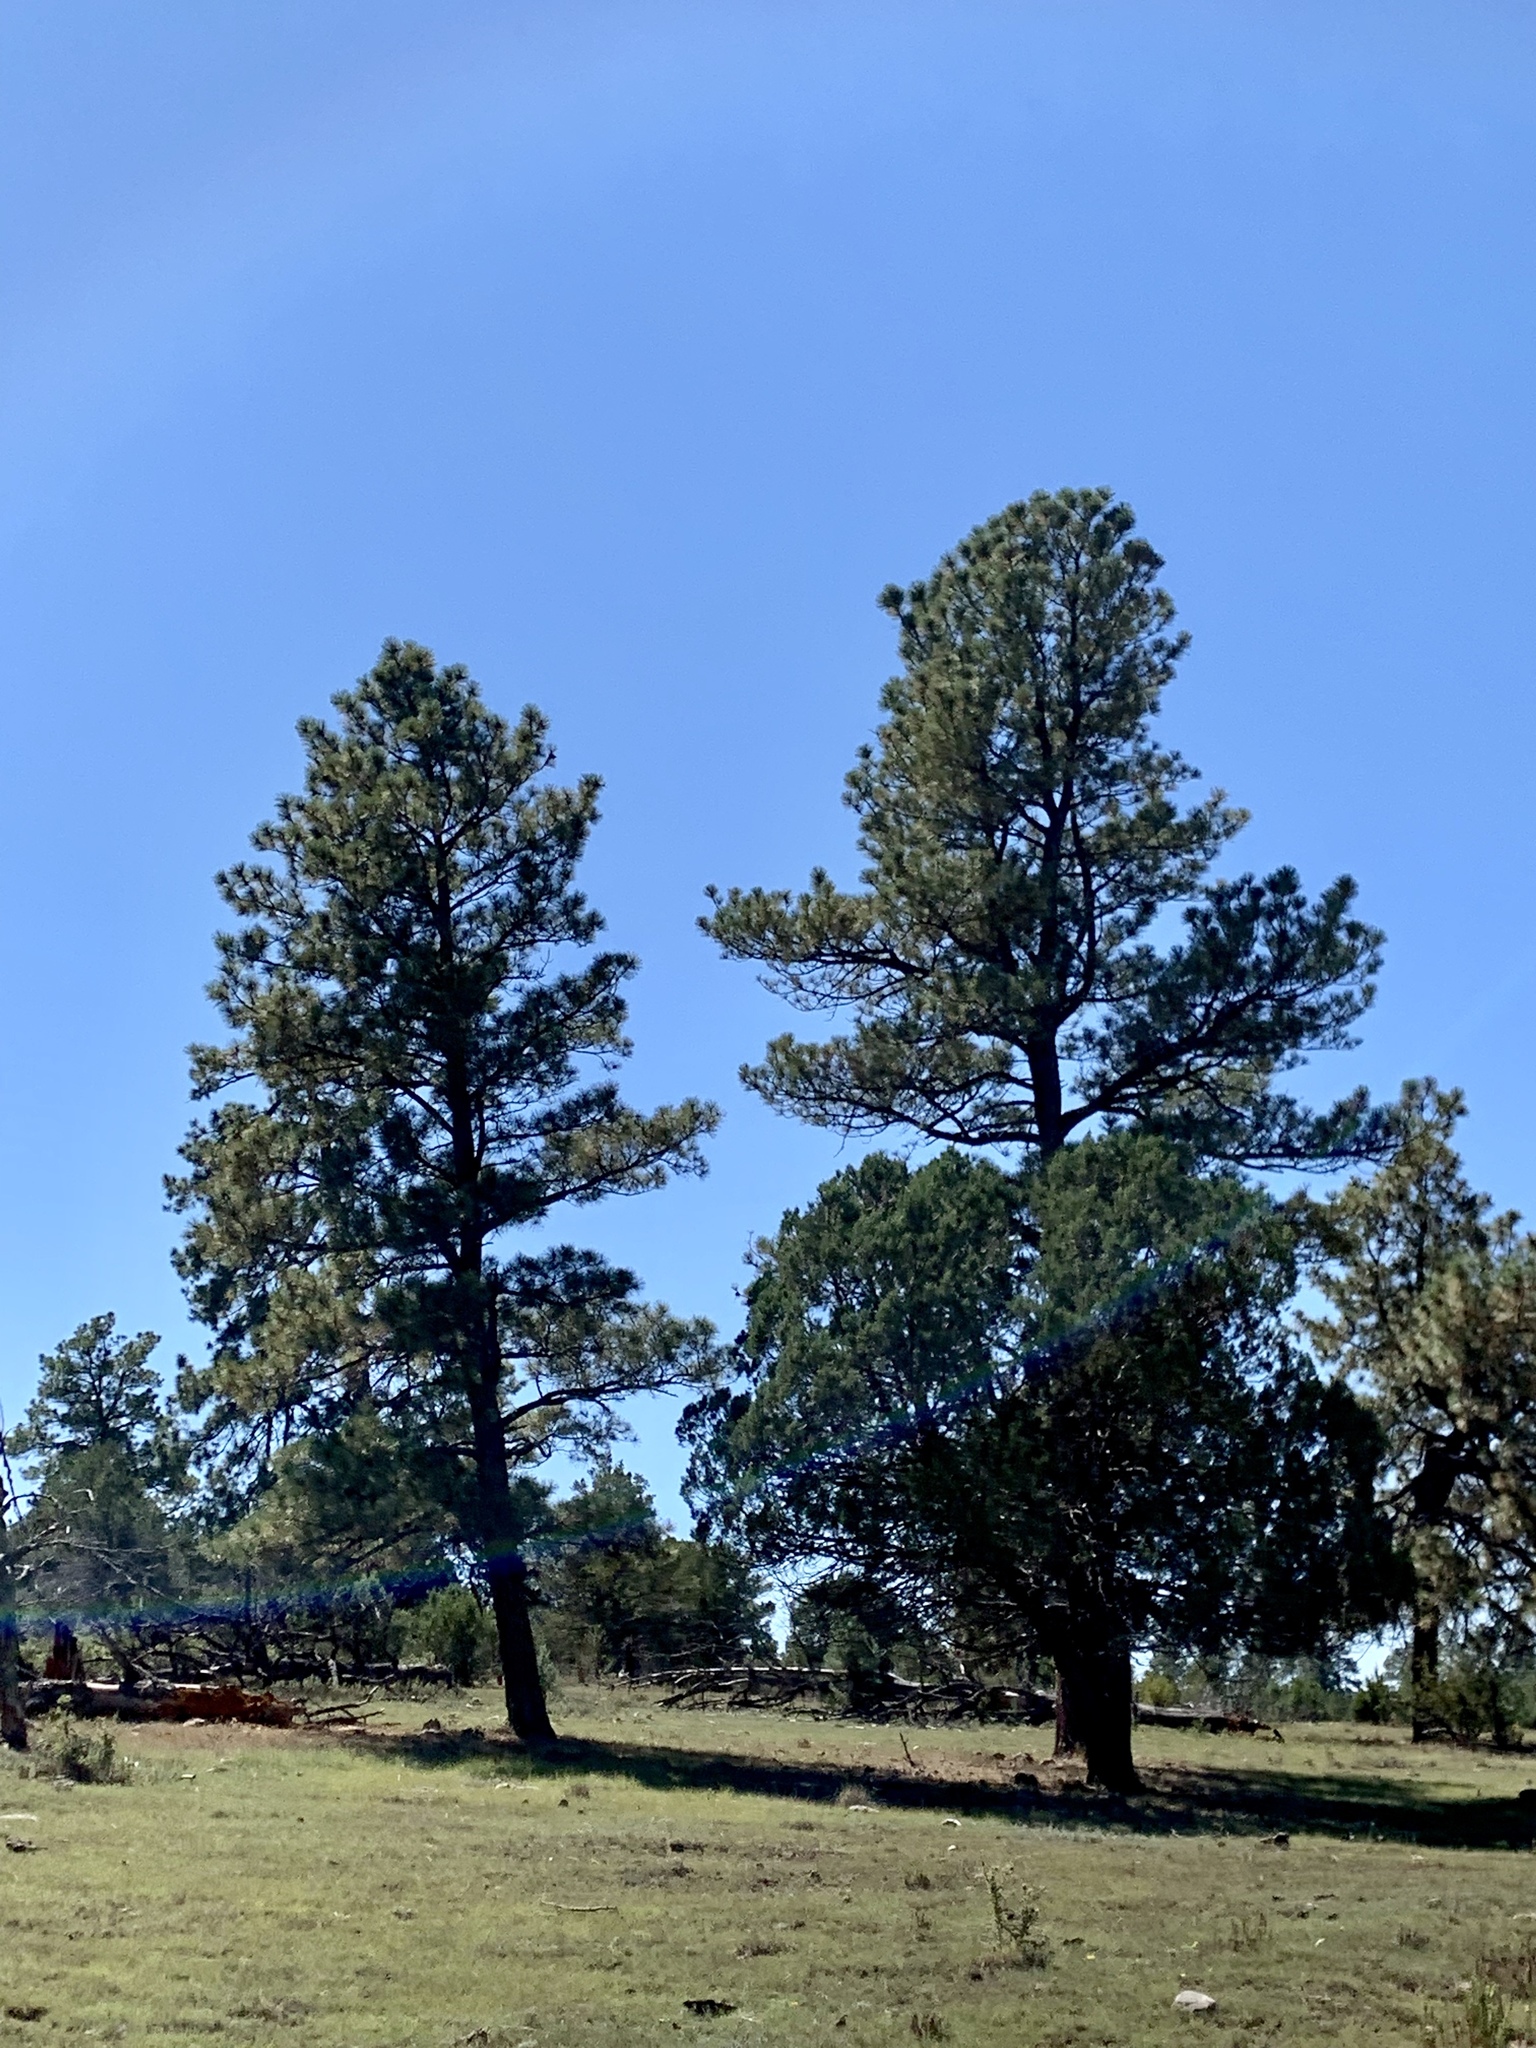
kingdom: Plantae
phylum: Tracheophyta
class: Pinopsida
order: Pinales
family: Pinaceae
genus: Pinus
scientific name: Pinus ponderosa
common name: Western yellow-pine
